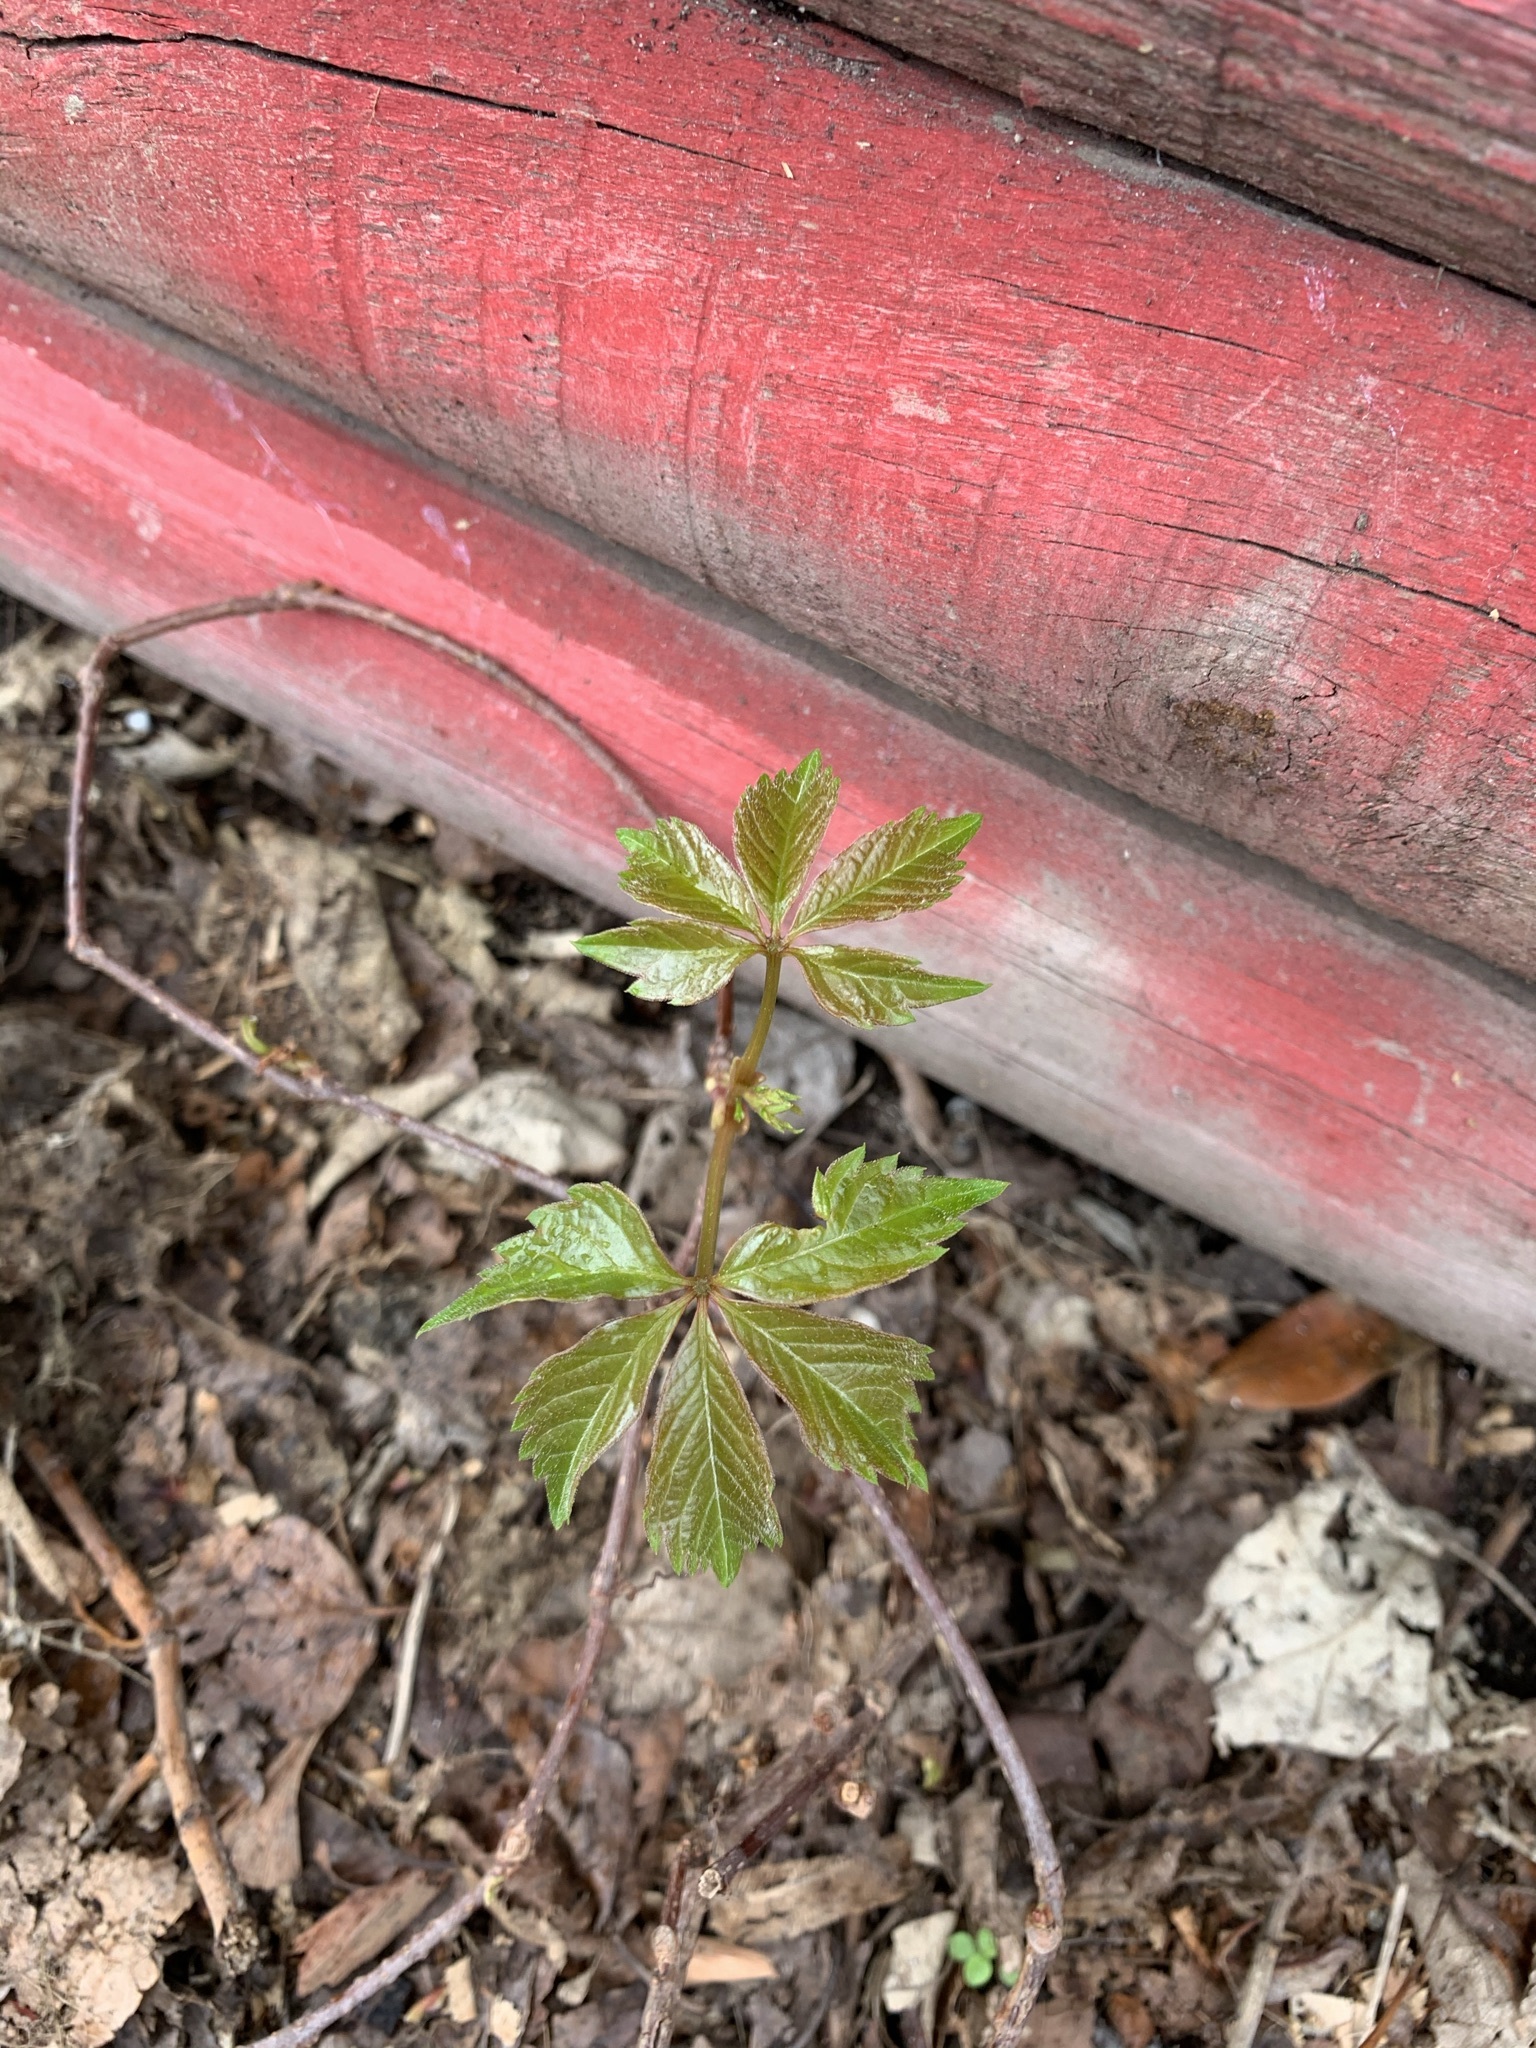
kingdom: Plantae
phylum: Tracheophyta
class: Magnoliopsida
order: Vitales
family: Vitaceae
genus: Parthenocissus
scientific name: Parthenocissus quinquefolia
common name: Virginia-creeper
